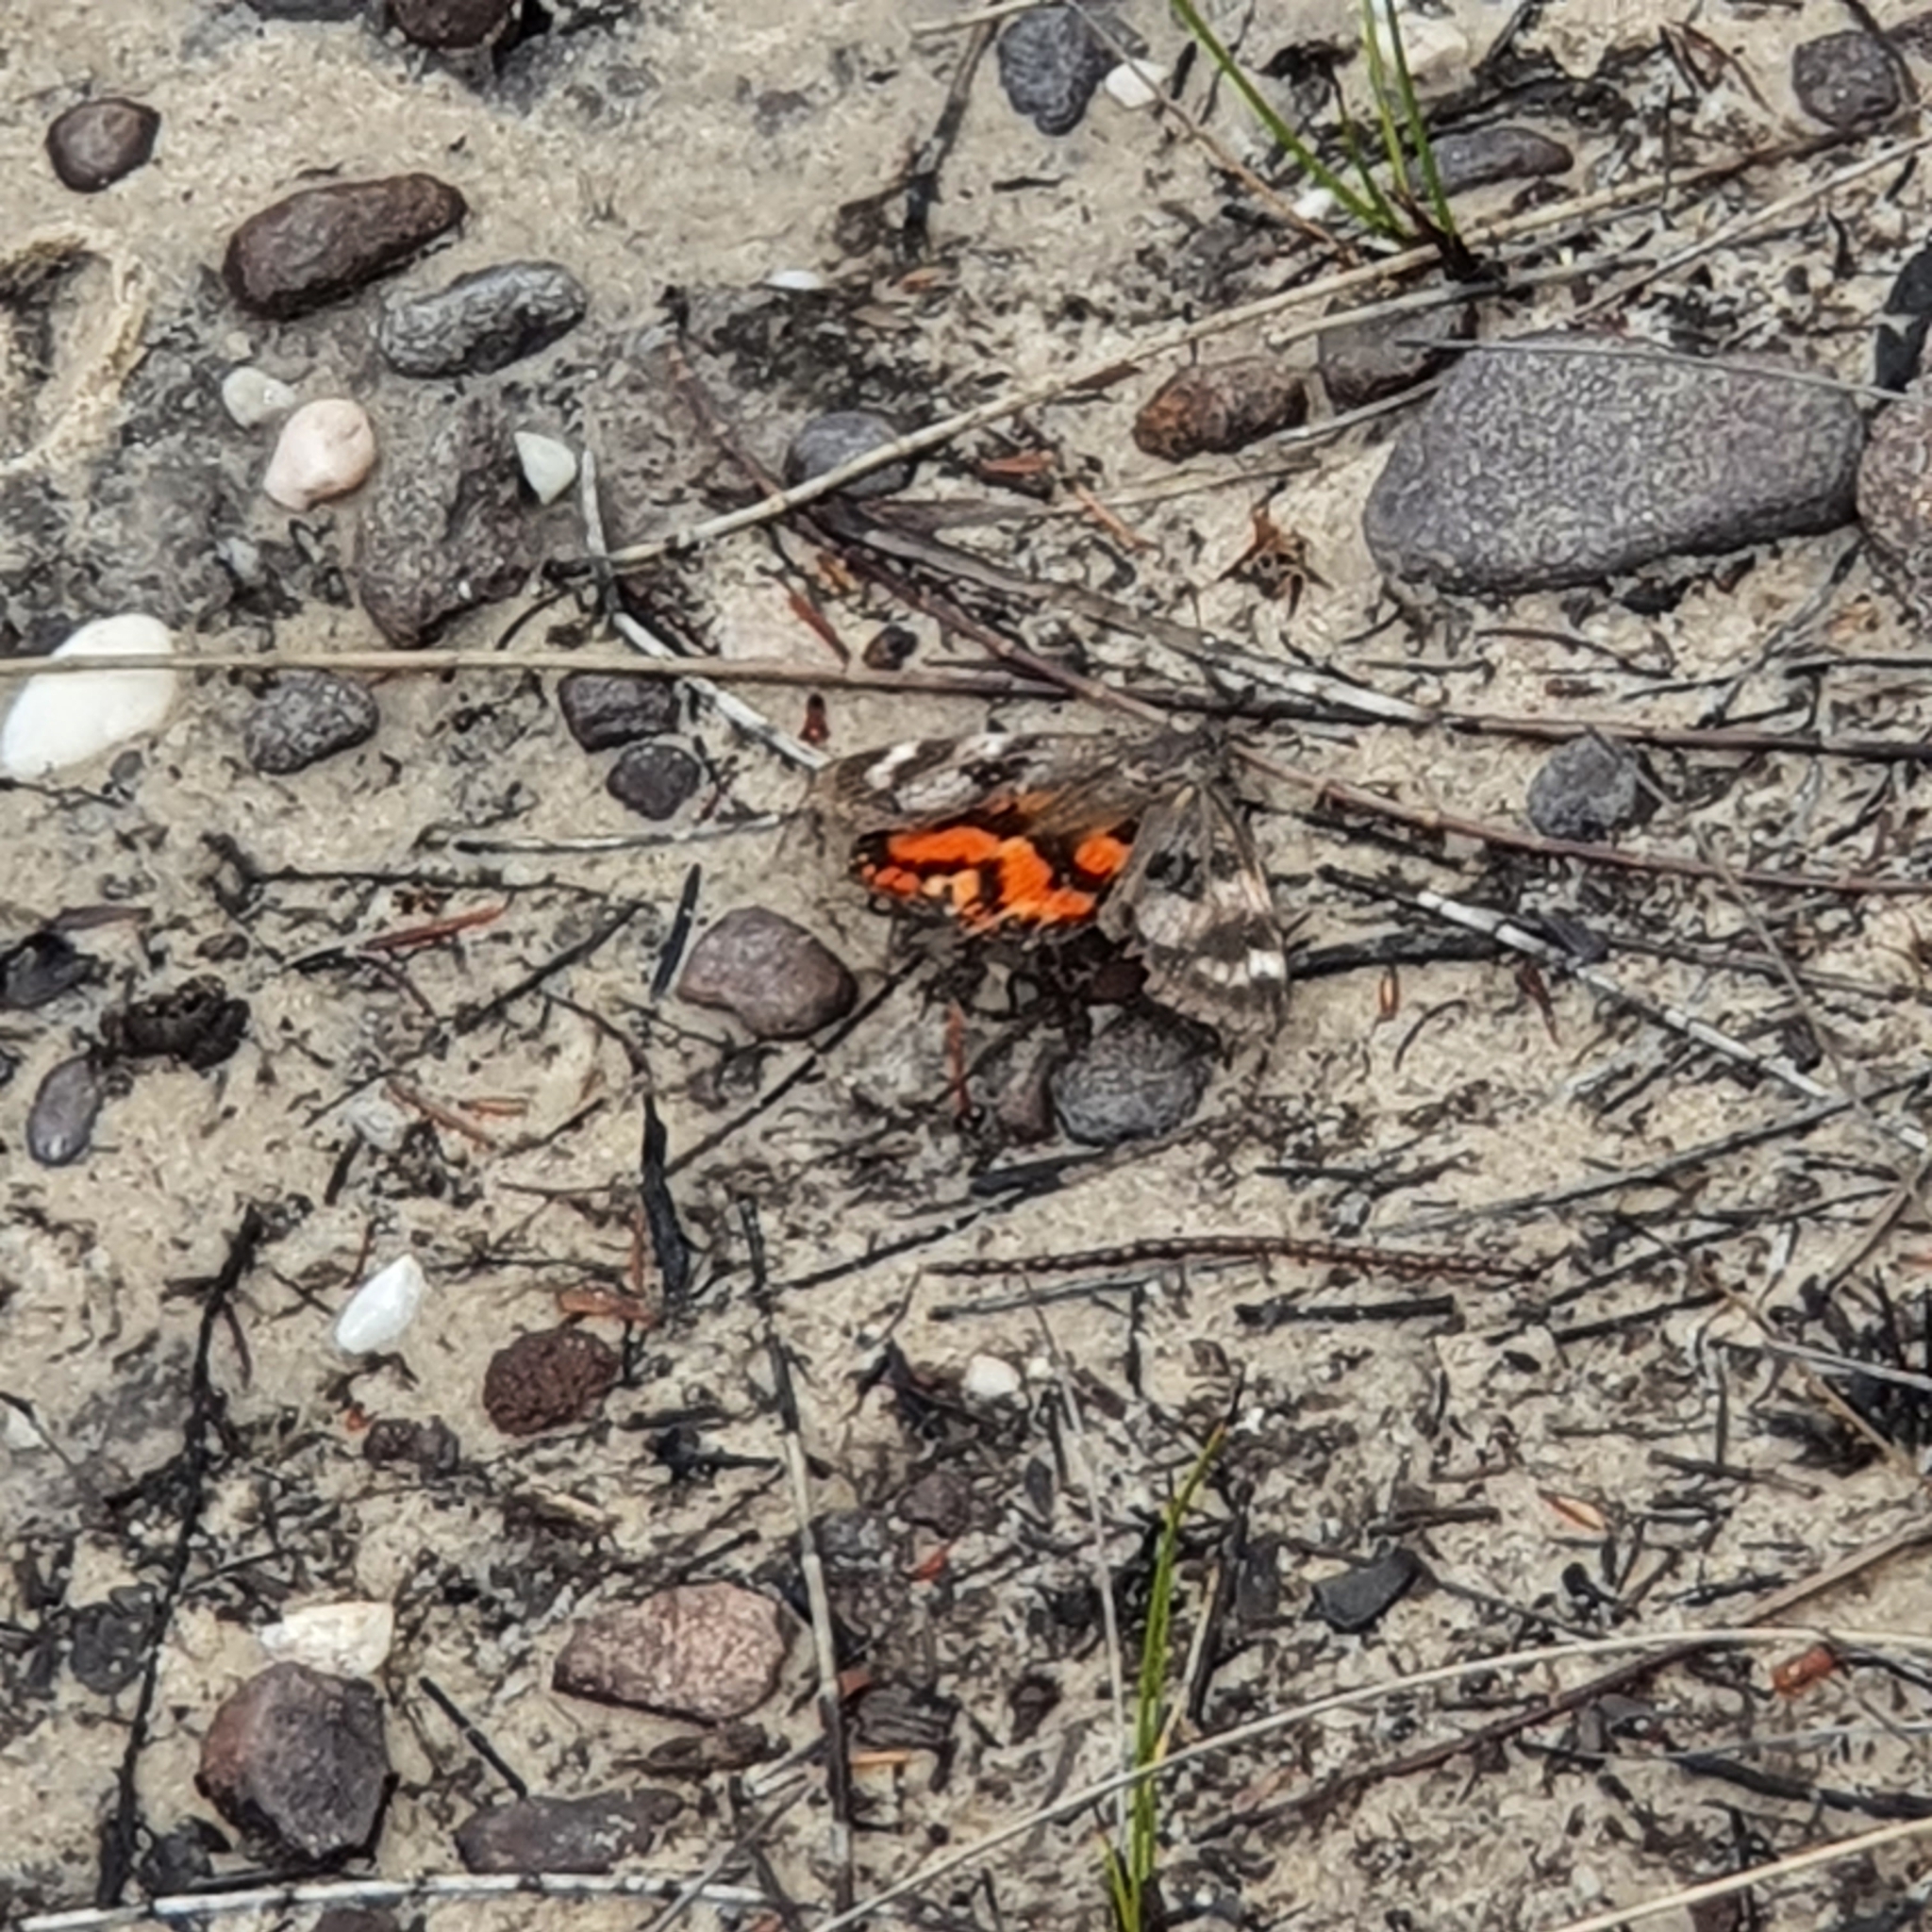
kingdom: Animalia
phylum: Arthropoda
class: Insecta
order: Lepidoptera
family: Castniidae
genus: Synemon
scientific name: Synemon magnifica
